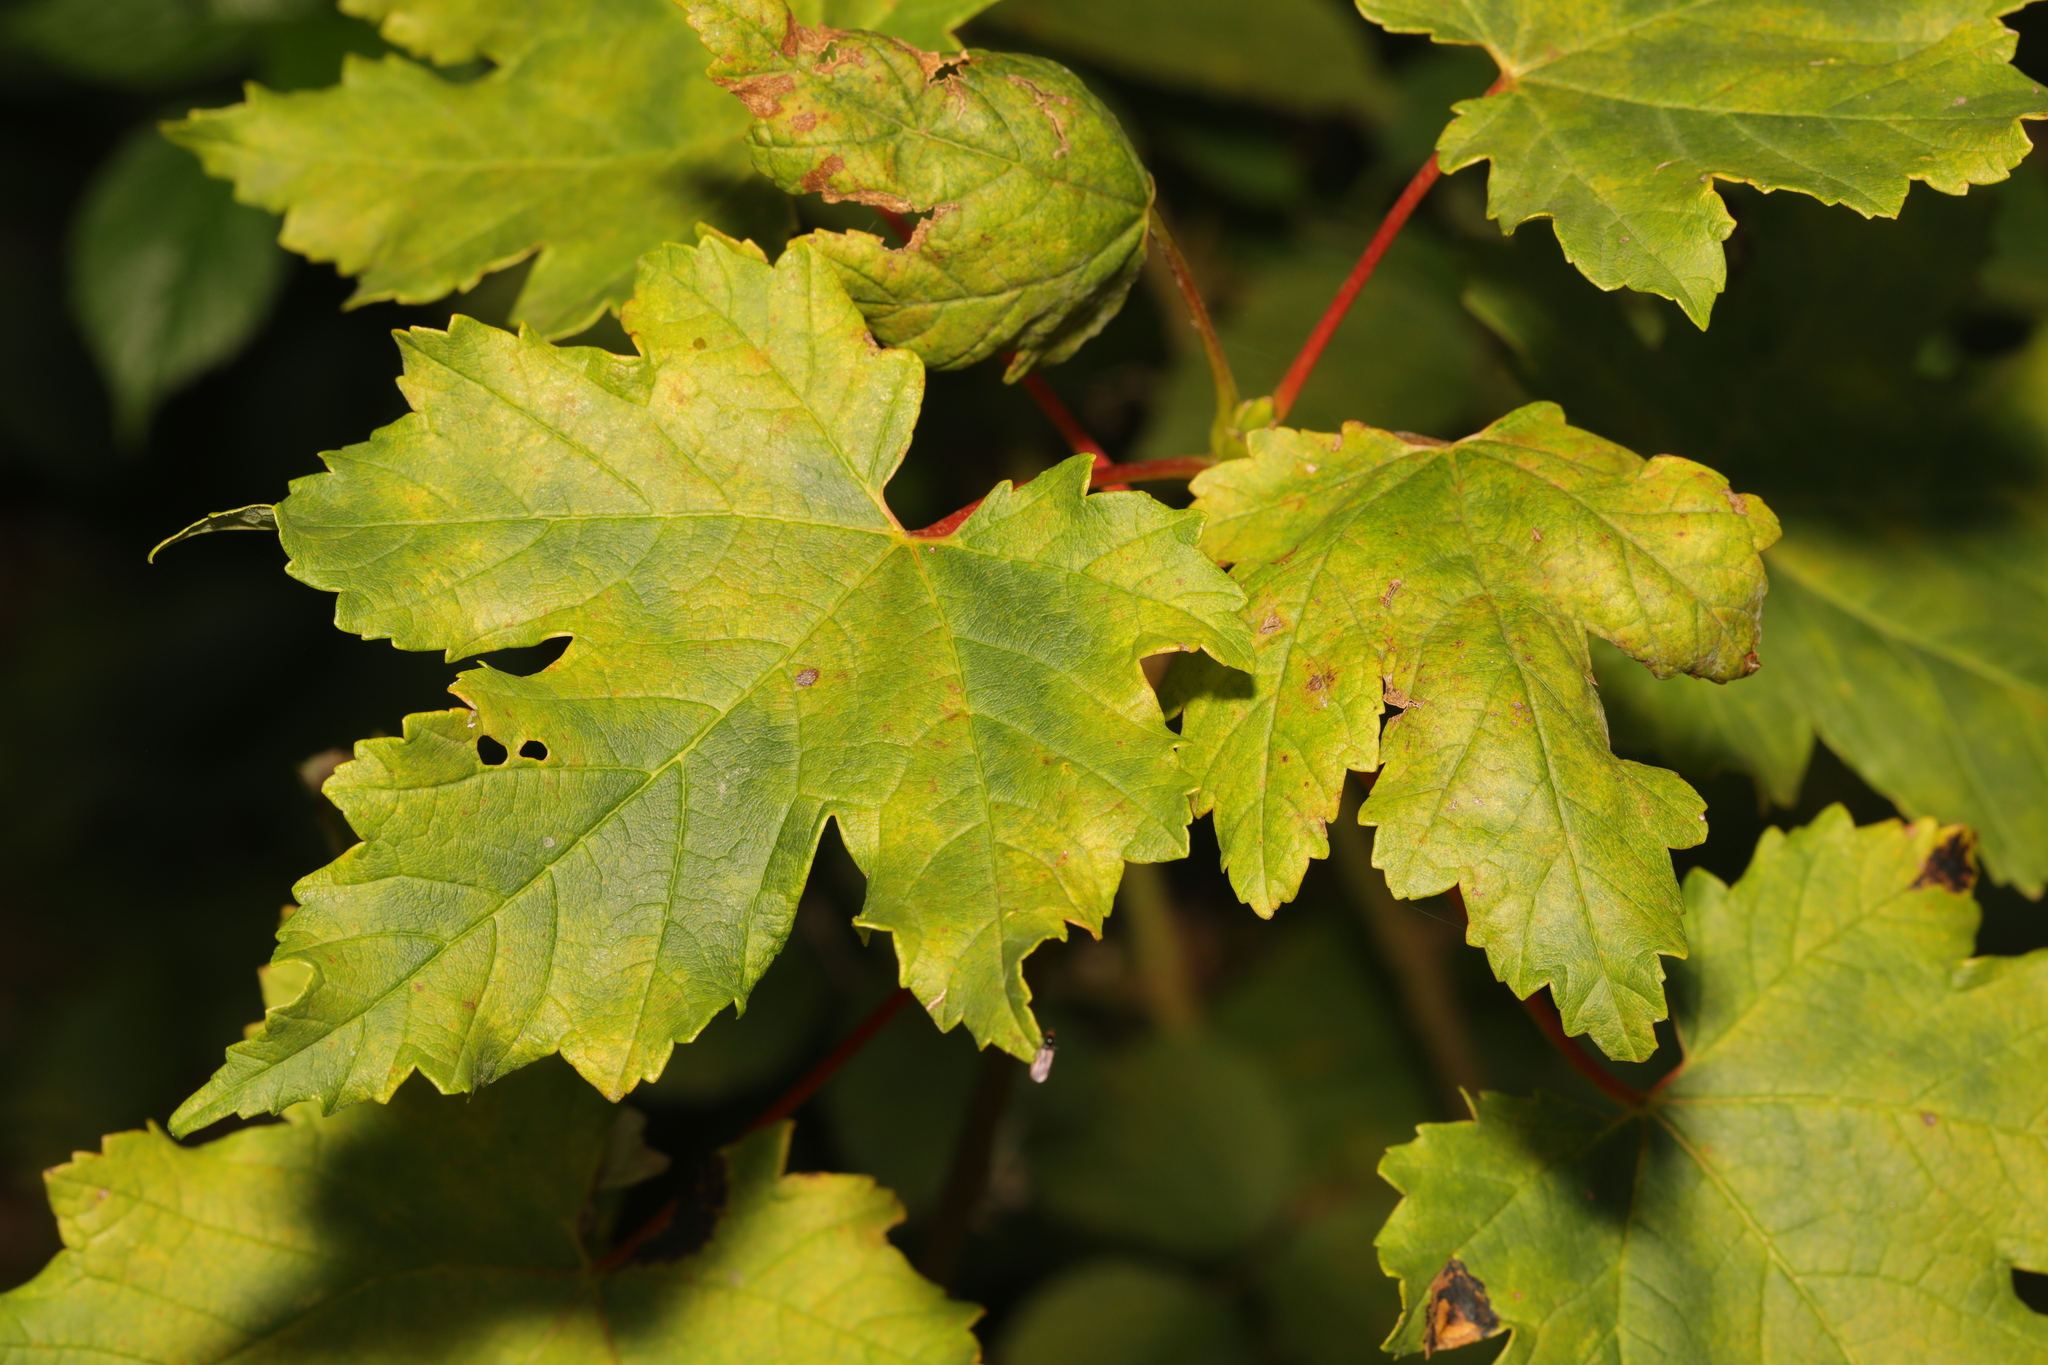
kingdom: Plantae
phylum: Tracheophyta
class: Magnoliopsida
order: Sapindales
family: Sapindaceae
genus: Acer
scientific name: Acer pseudoplatanus
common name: Sycamore
